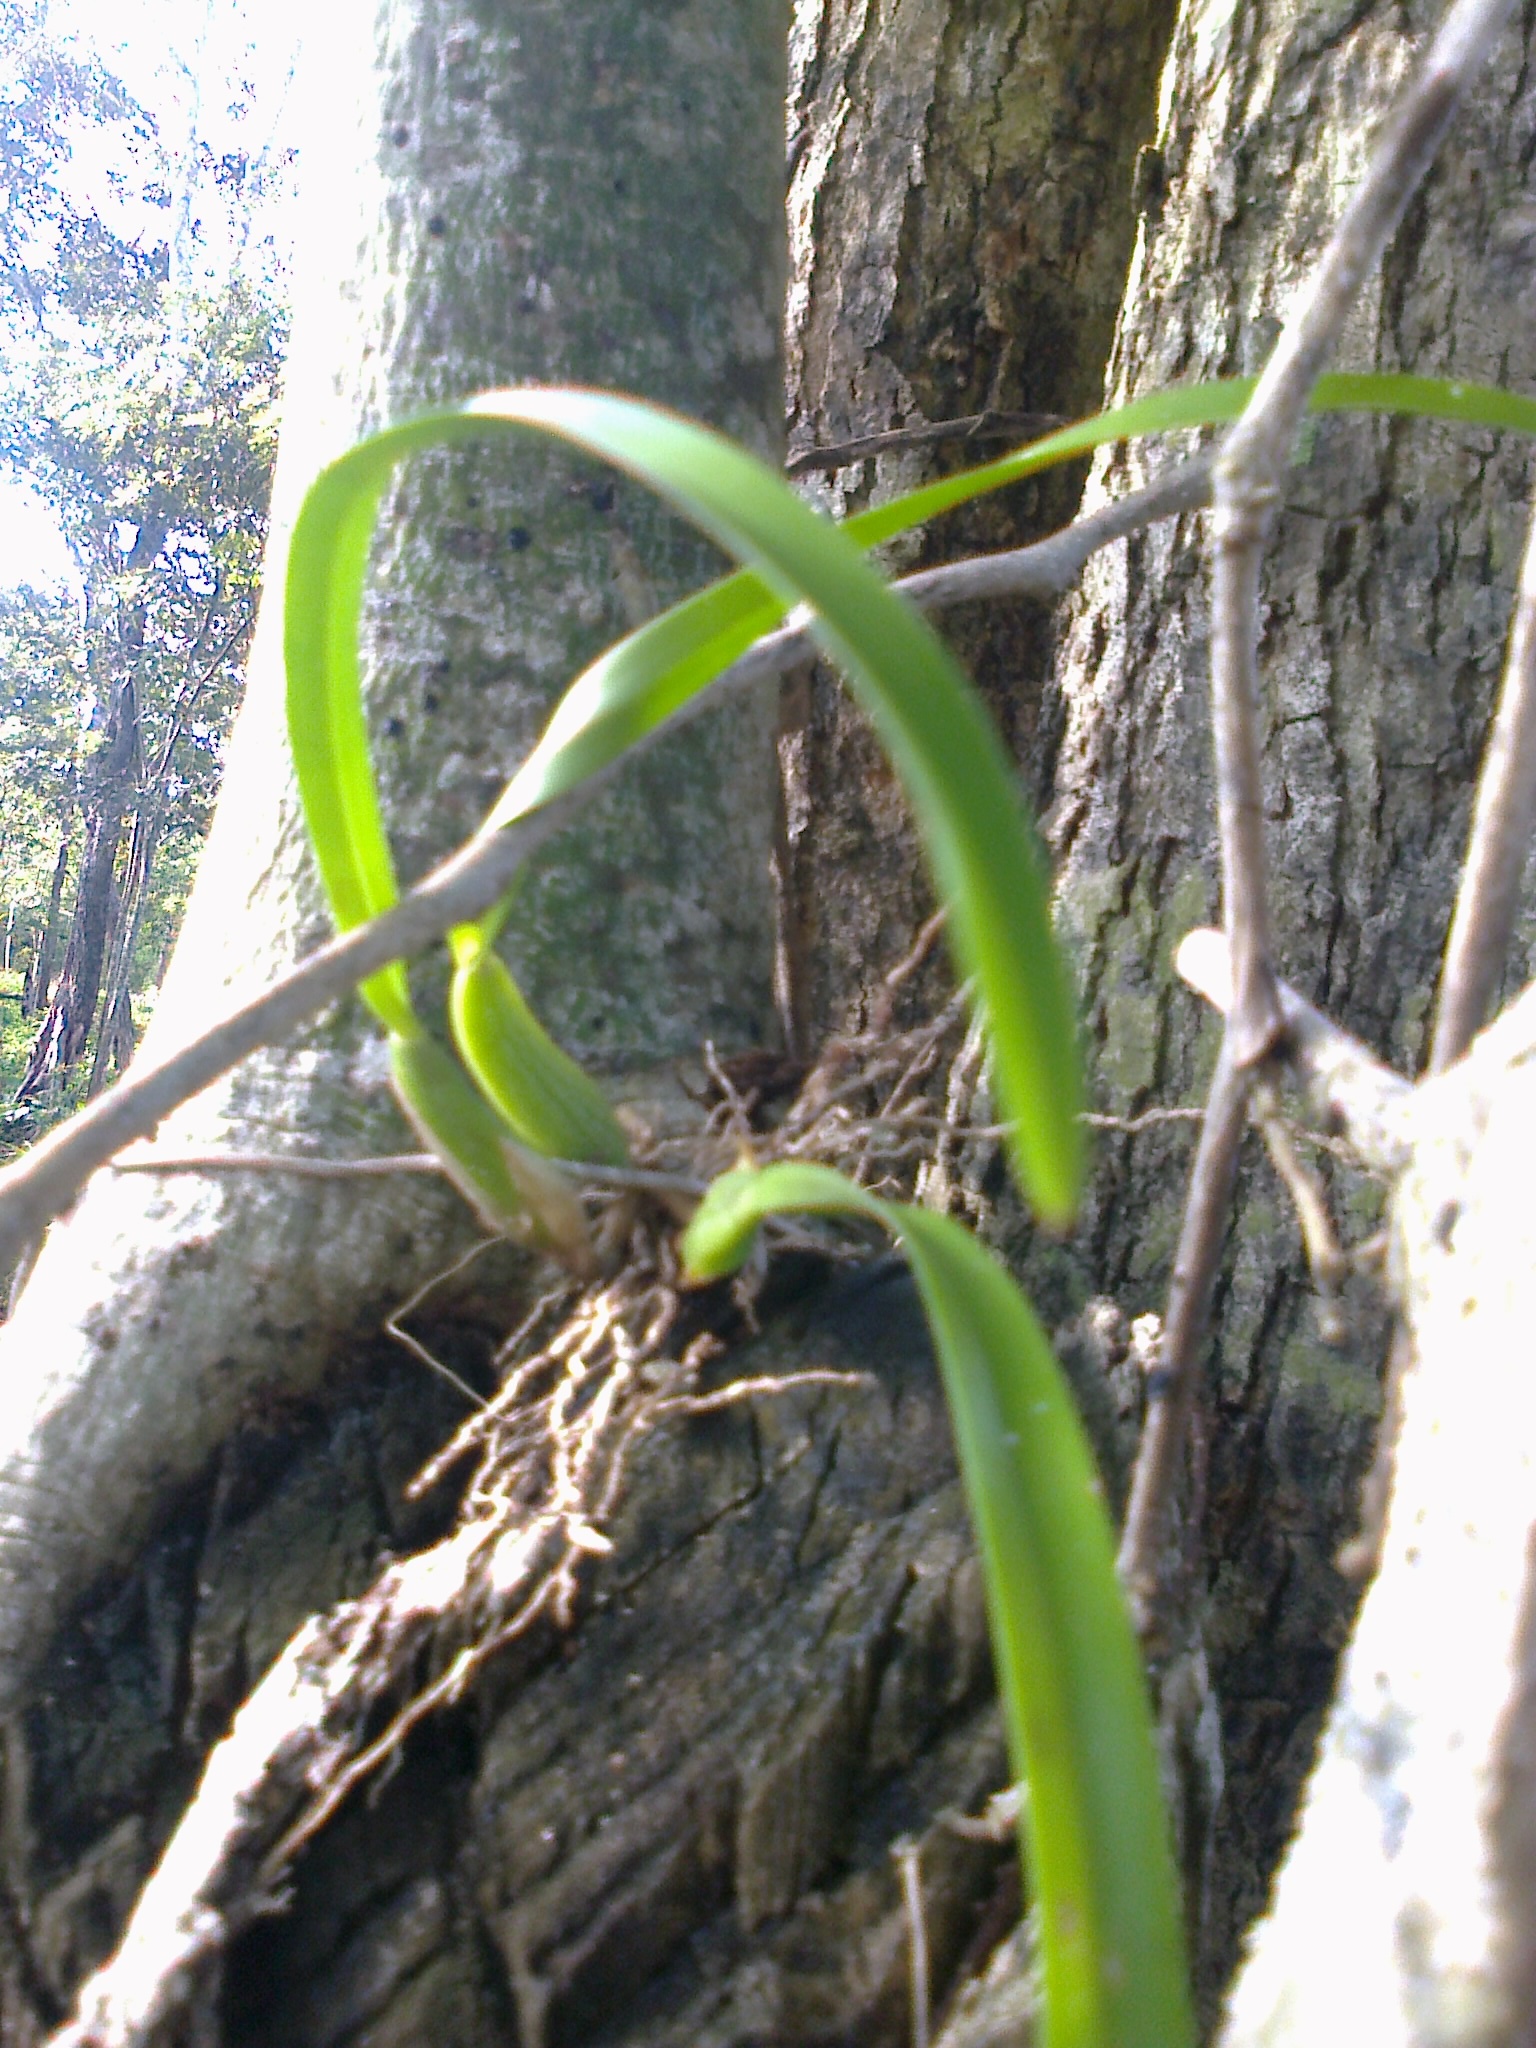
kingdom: Plantae
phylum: Tracheophyta
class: Liliopsida
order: Asparagales
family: Orchidaceae
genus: Nidema
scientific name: Nidema boothii
